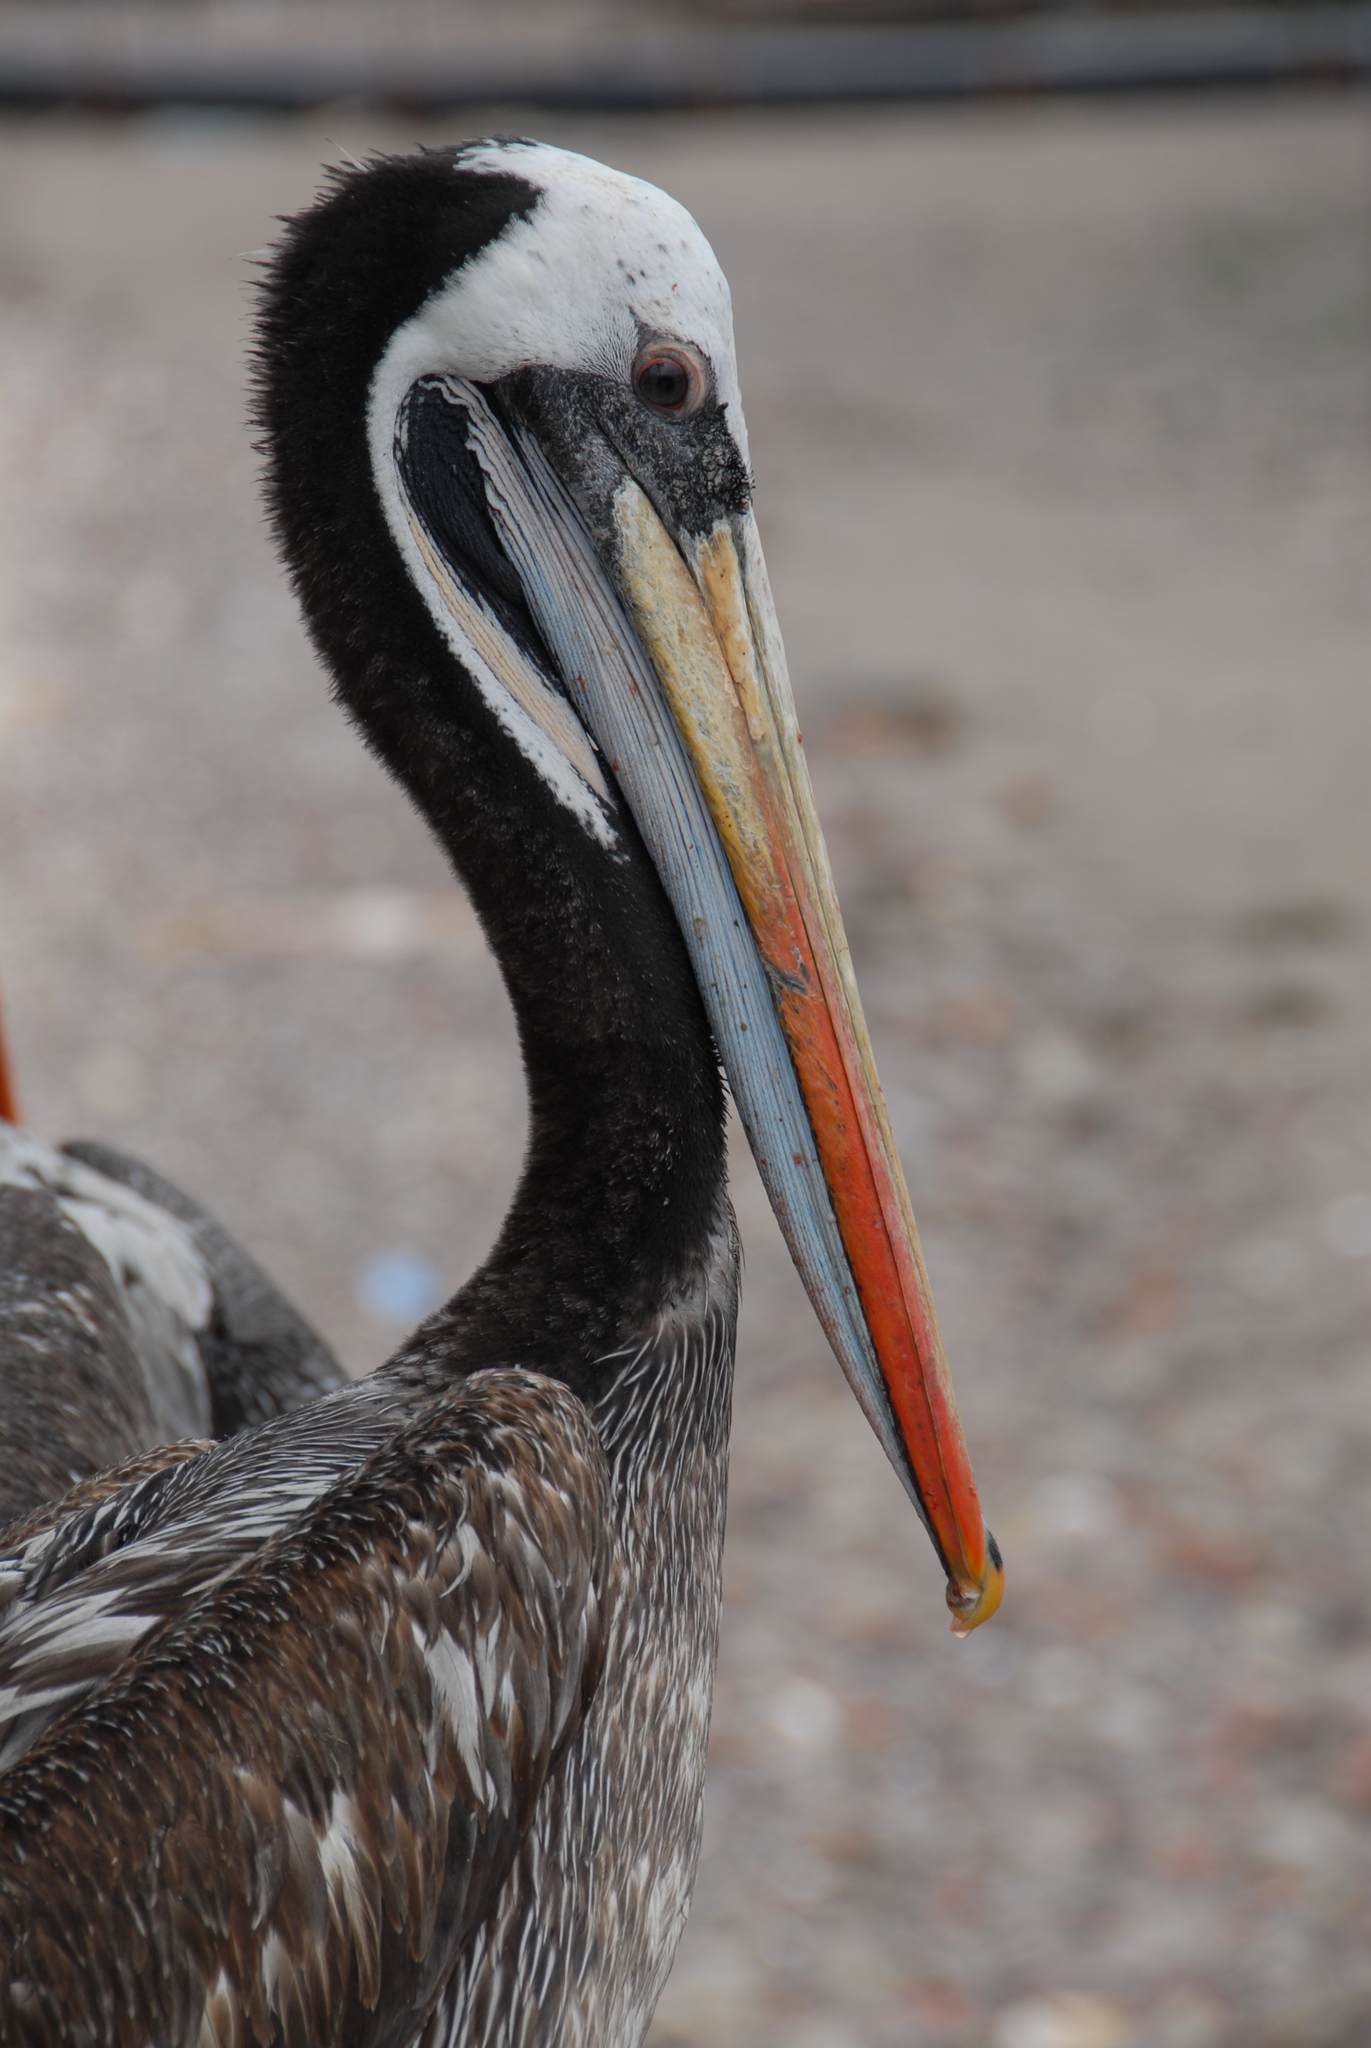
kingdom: Animalia
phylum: Chordata
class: Aves
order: Pelecaniformes
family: Pelecanidae
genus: Pelecanus
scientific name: Pelecanus thagus
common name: Peruvian pelican
